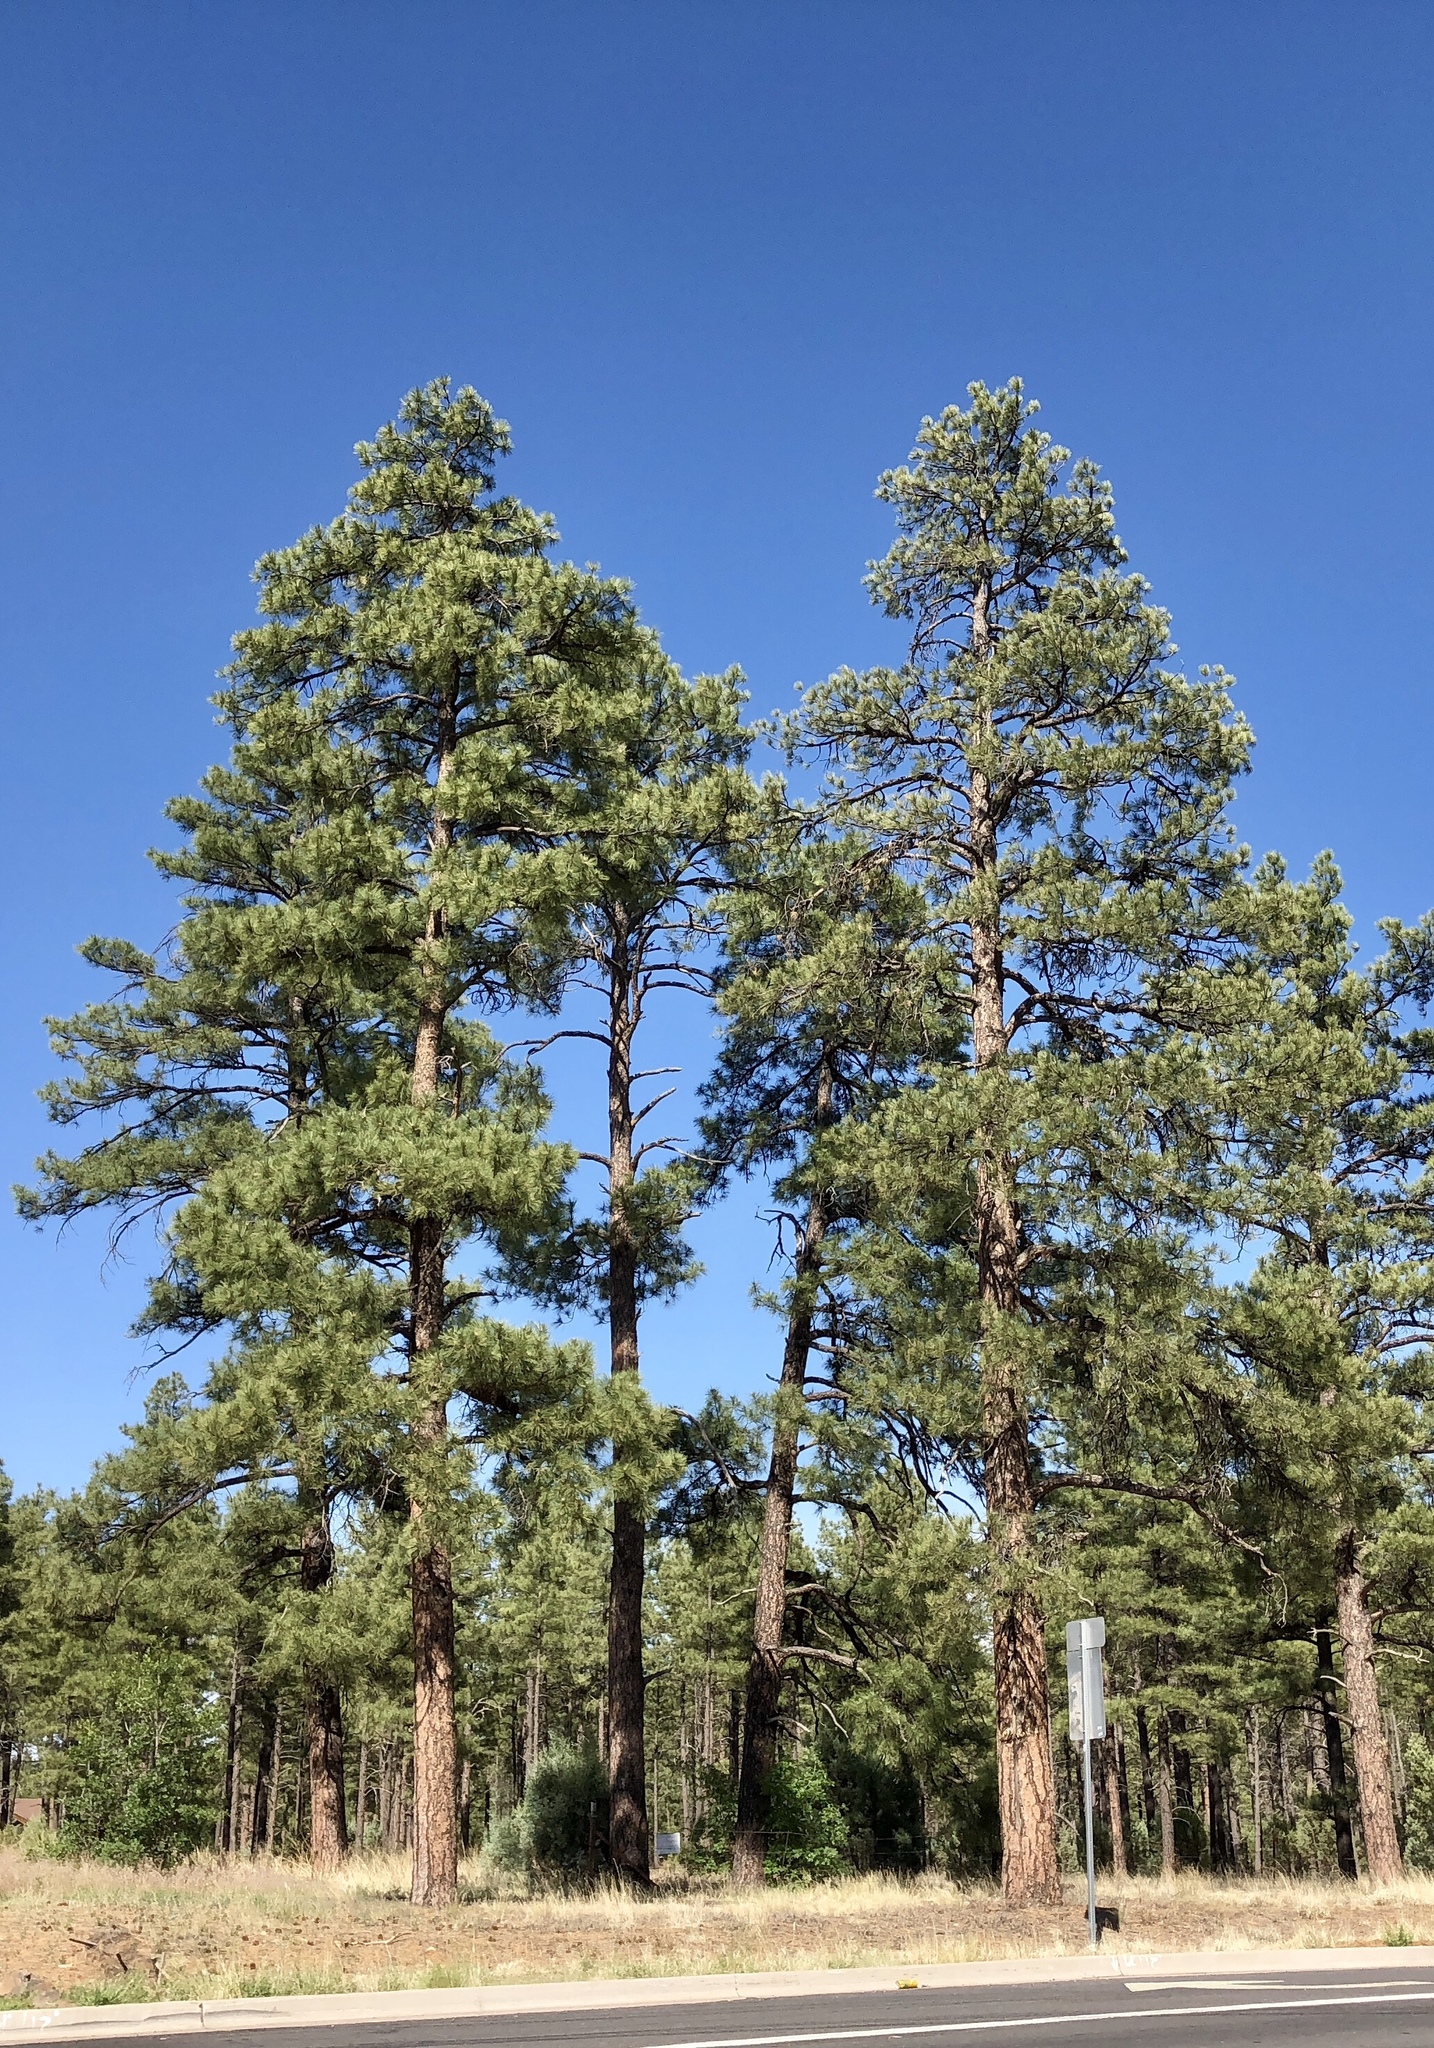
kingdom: Plantae
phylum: Tracheophyta
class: Pinopsida
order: Pinales
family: Pinaceae
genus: Pinus
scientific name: Pinus ponderosa
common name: Western yellow-pine
